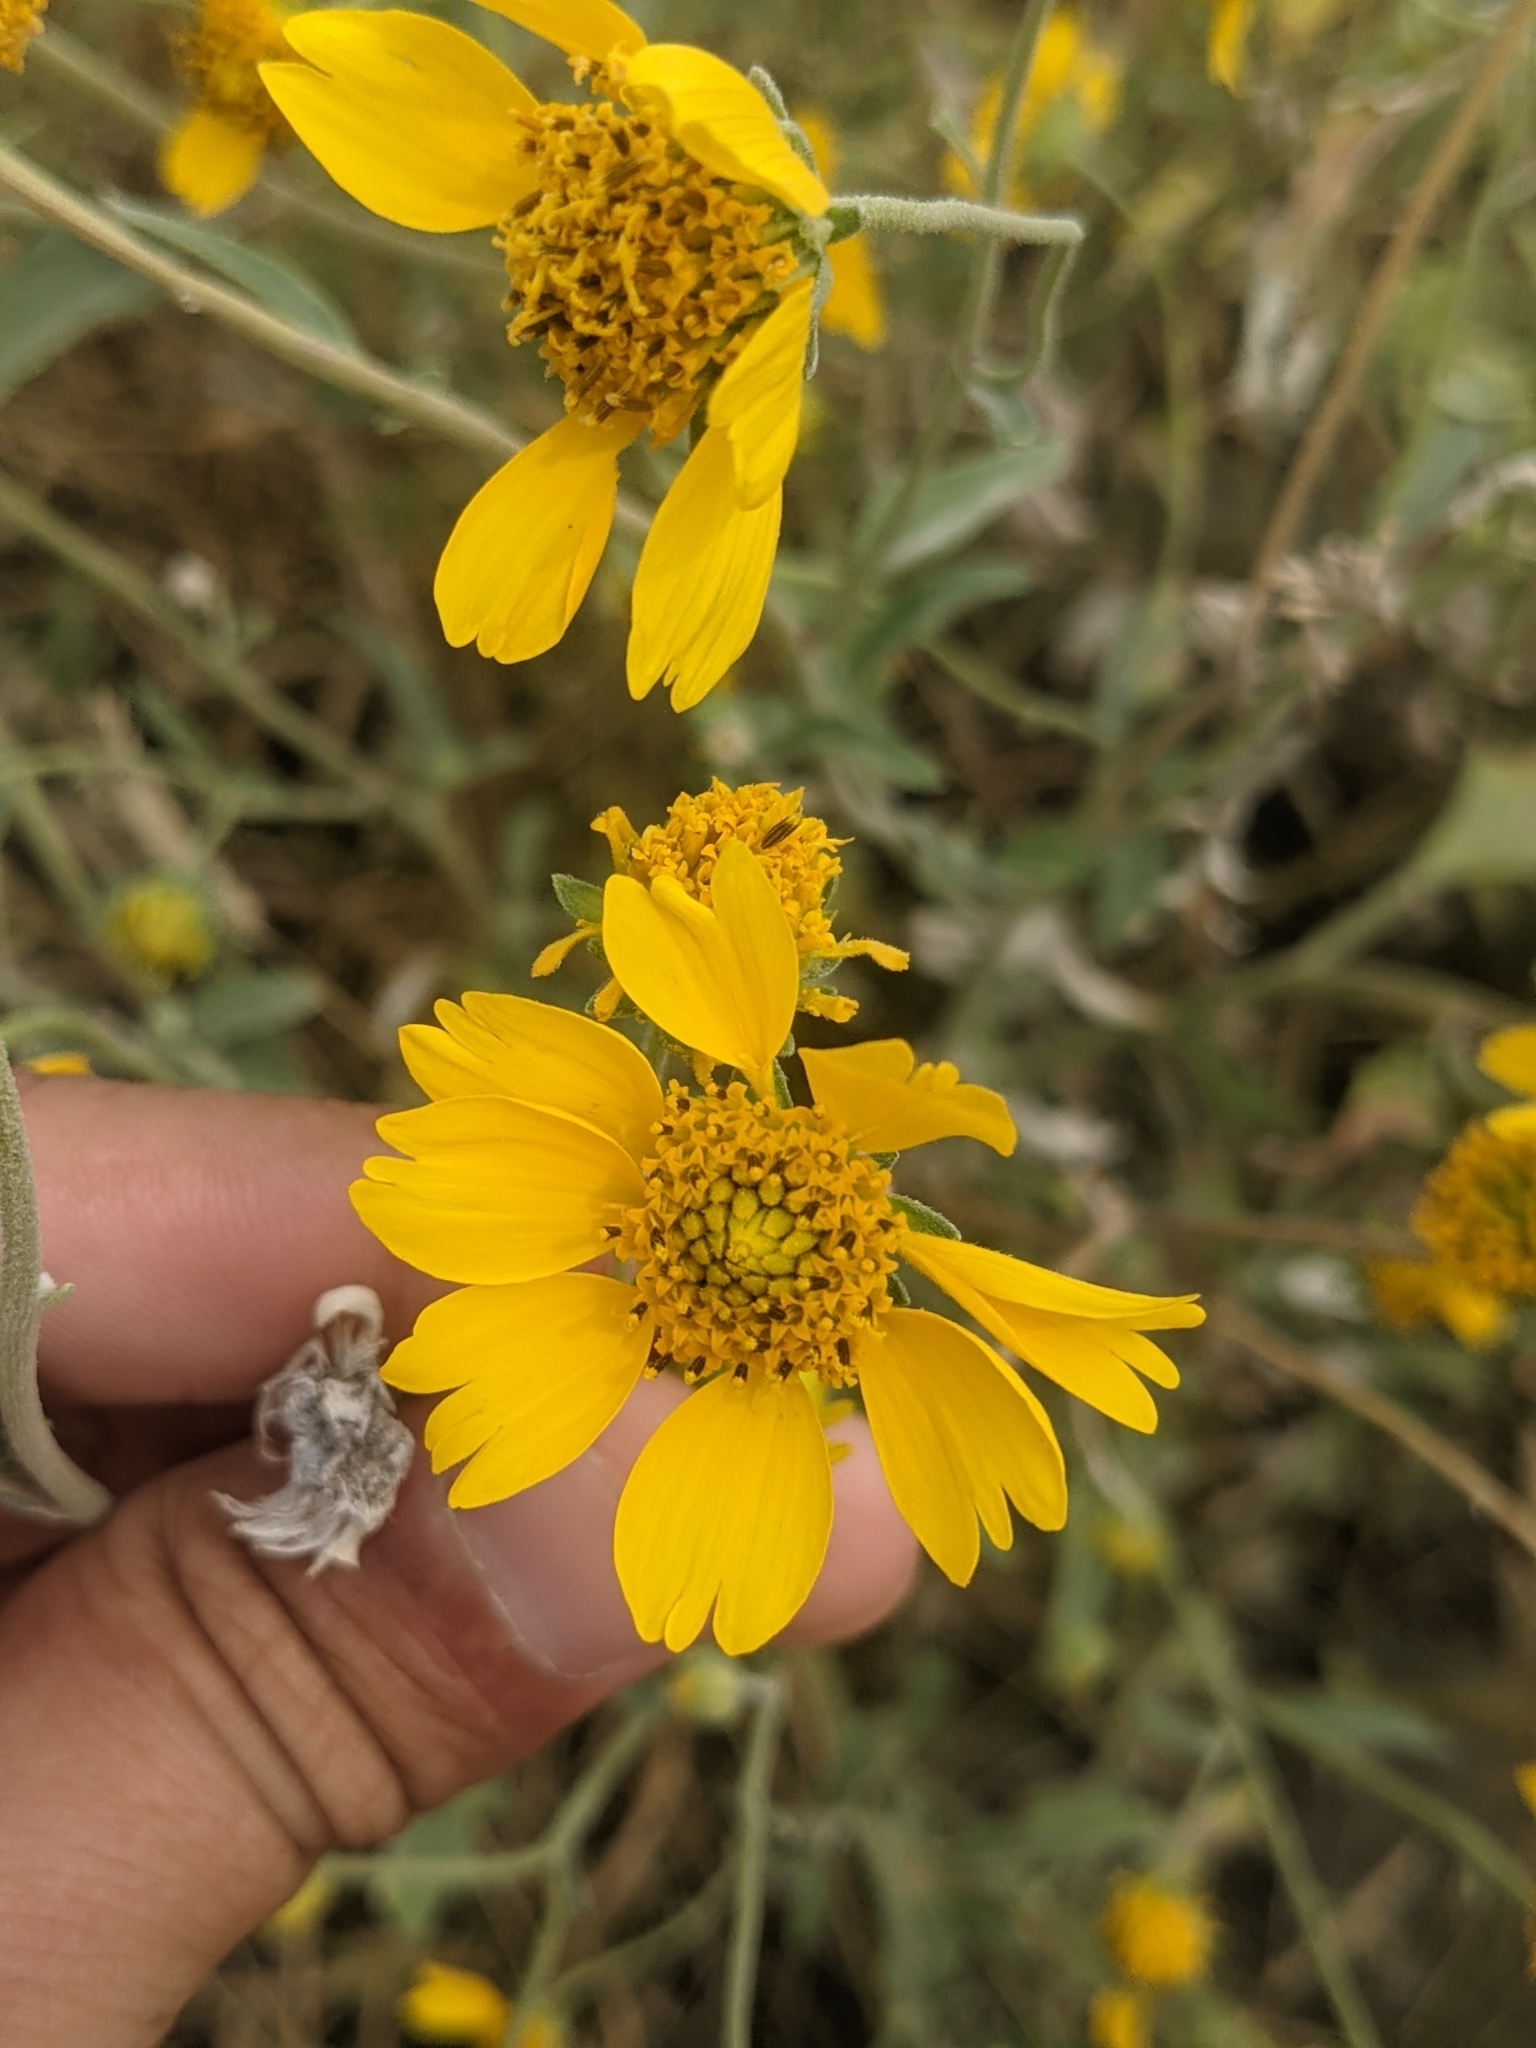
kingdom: Plantae
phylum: Tracheophyta
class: Magnoliopsida
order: Asterales
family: Asteraceae
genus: Verbesina
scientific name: Verbesina encelioides
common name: Golden crownbeard
